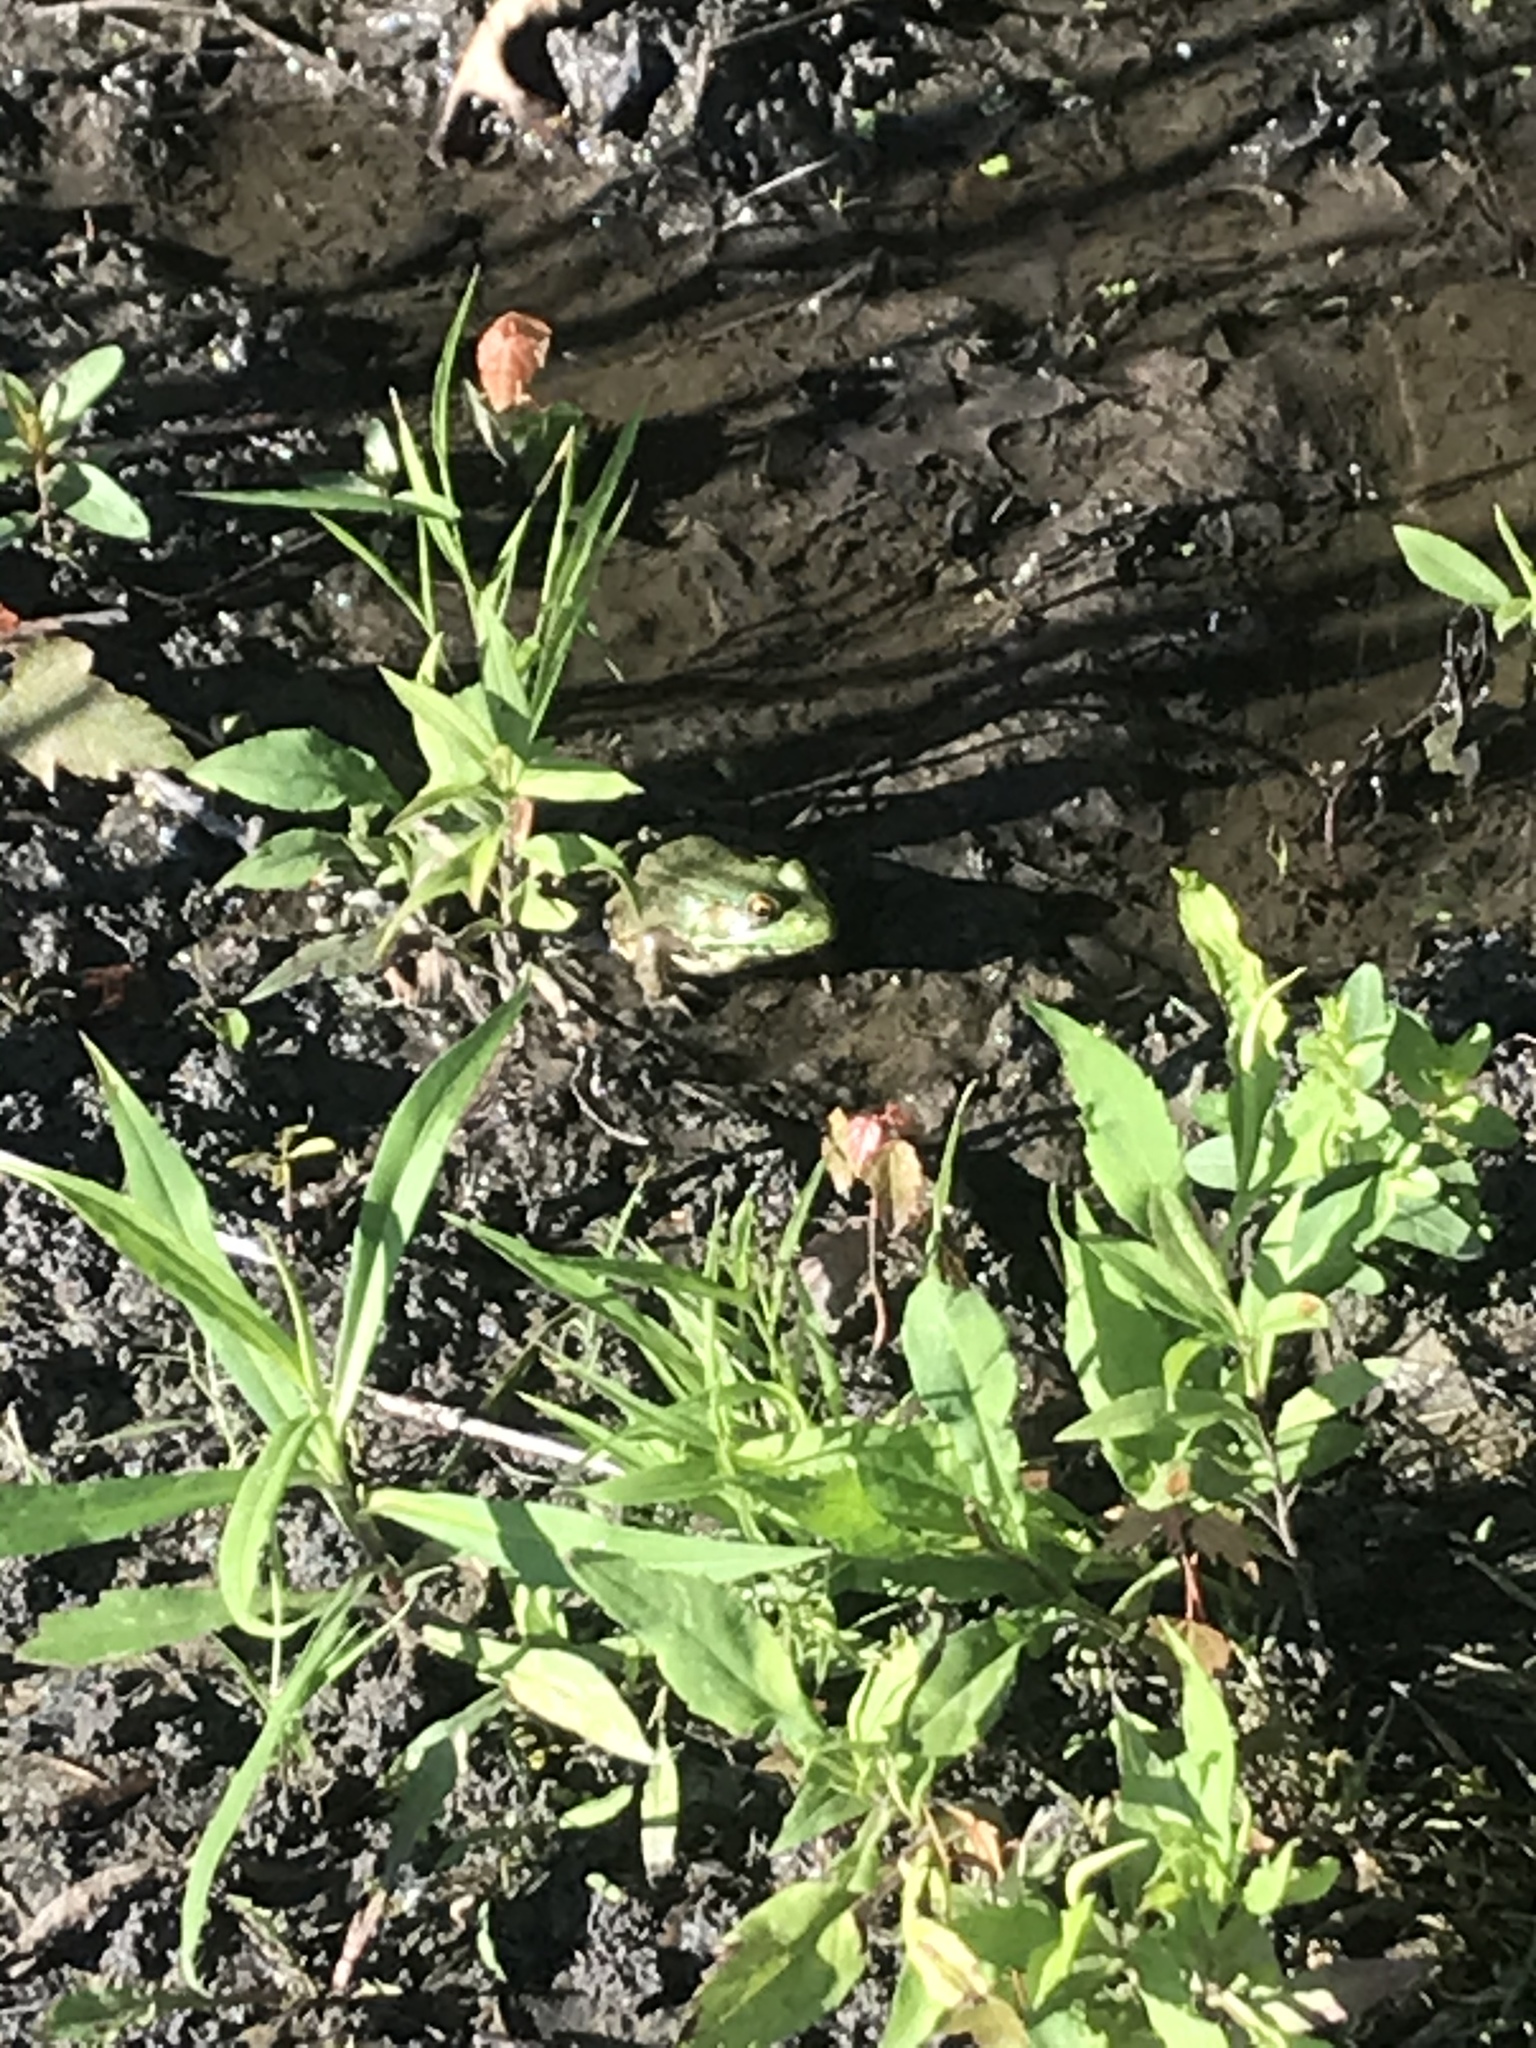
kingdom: Animalia
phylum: Chordata
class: Amphibia
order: Anura
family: Ranidae
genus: Lithobates
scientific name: Lithobates clamitans
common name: Green frog
